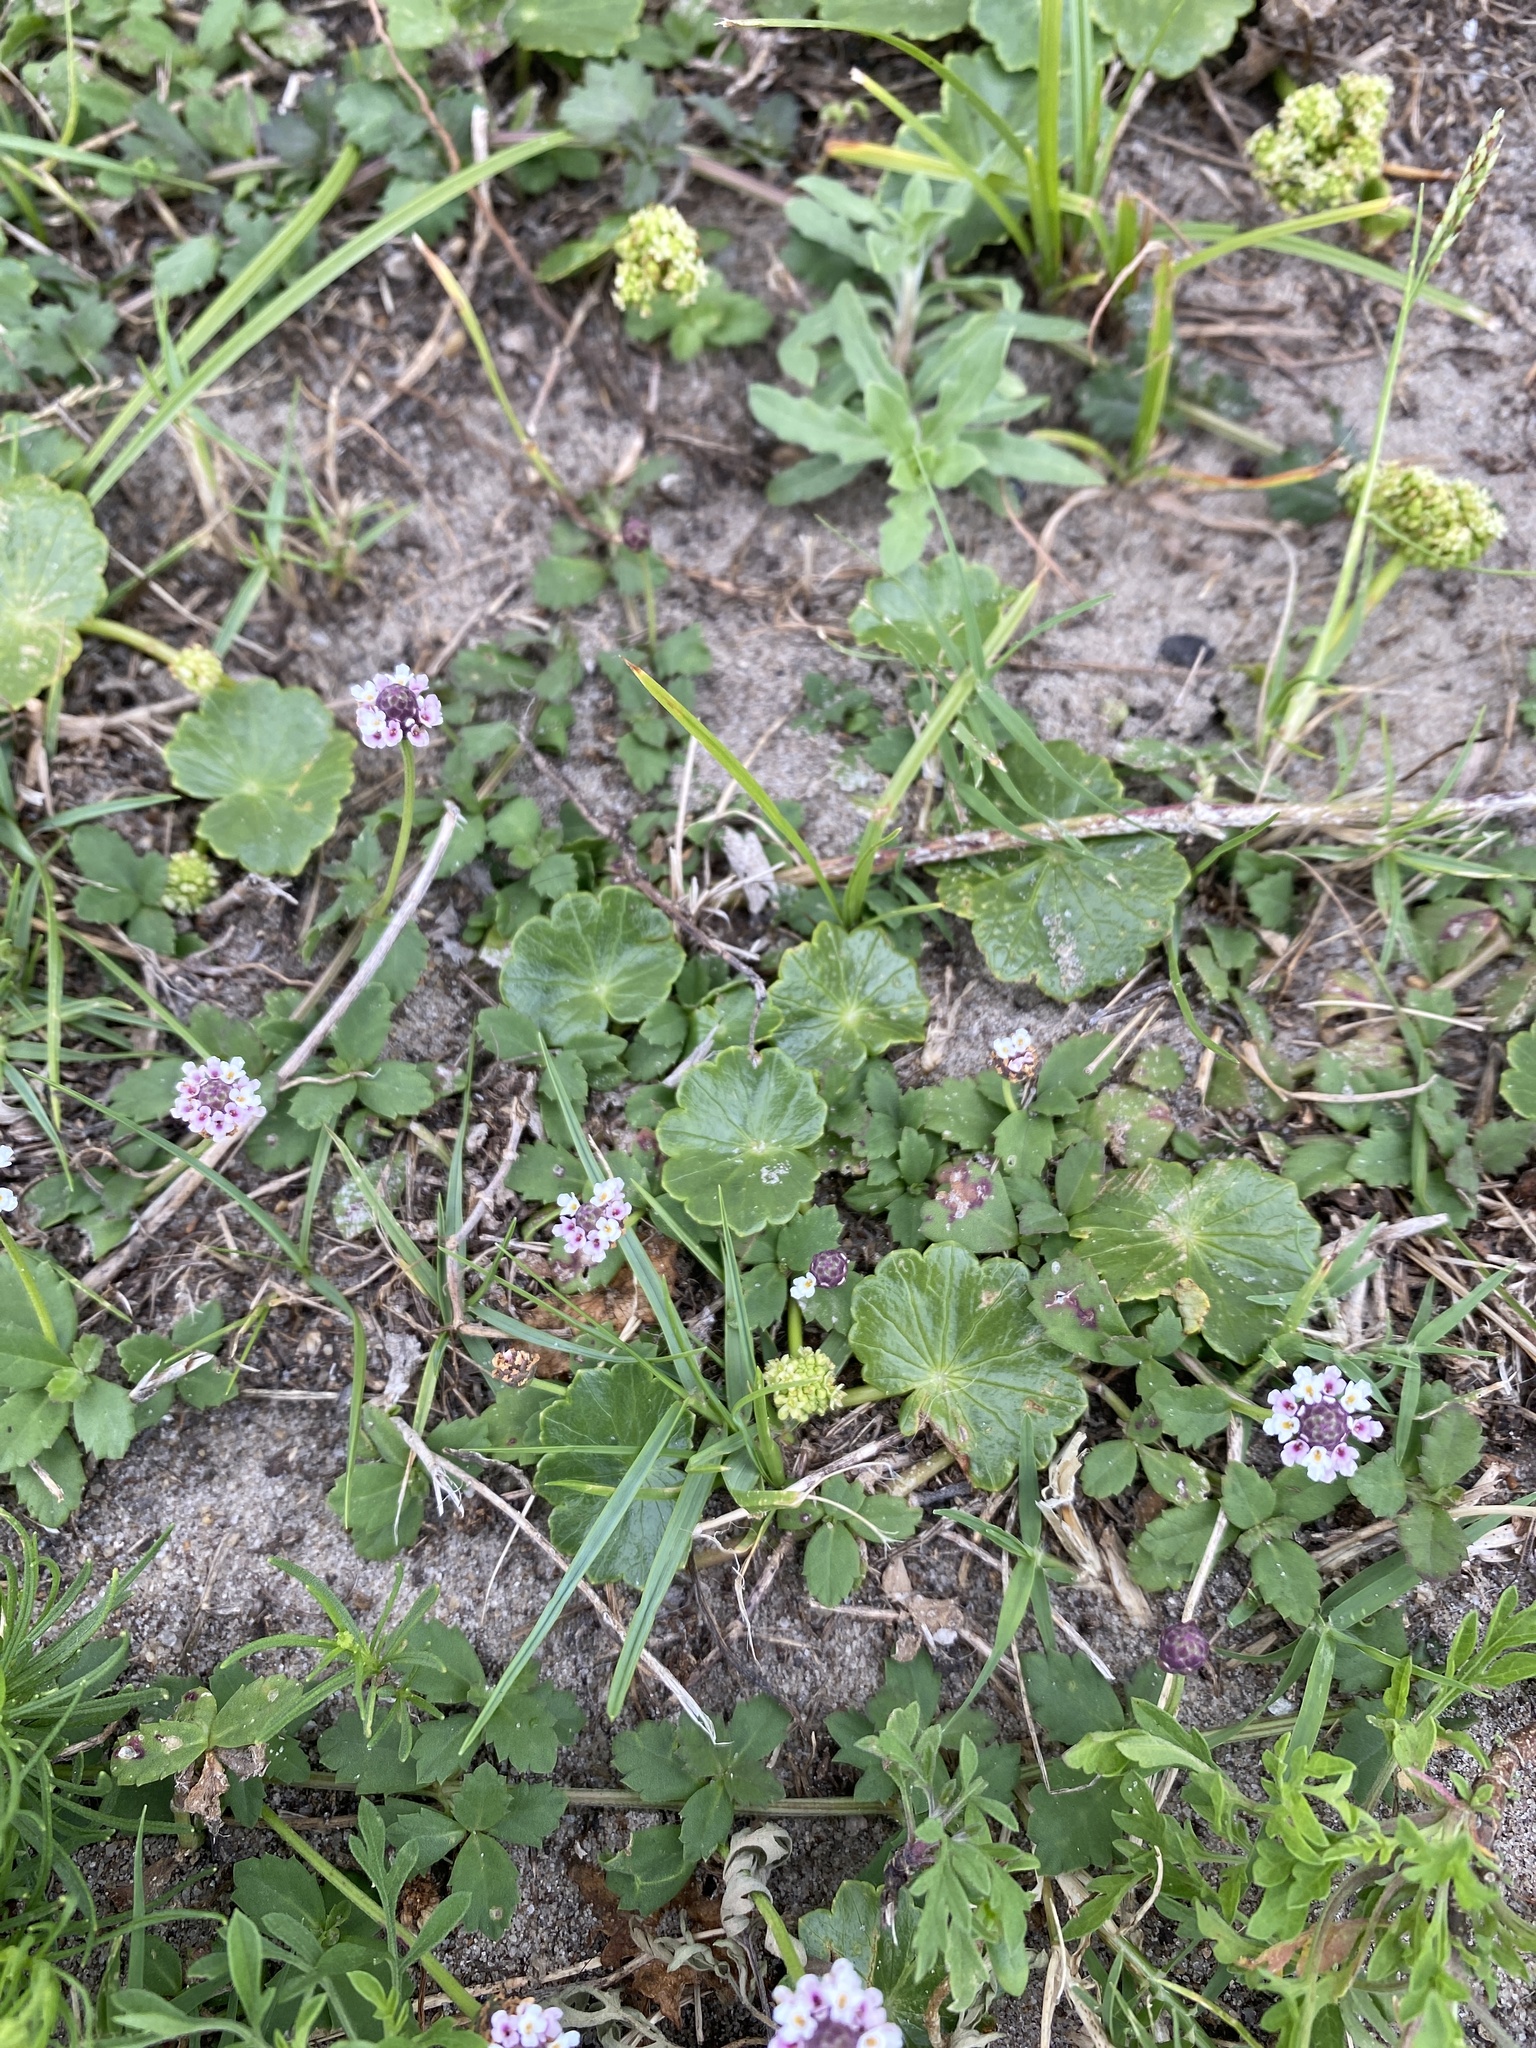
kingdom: Plantae
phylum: Tracheophyta
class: Magnoliopsida
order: Lamiales
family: Verbenaceae
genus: Phyla
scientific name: Phyla nodiflora
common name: Frogfruit
